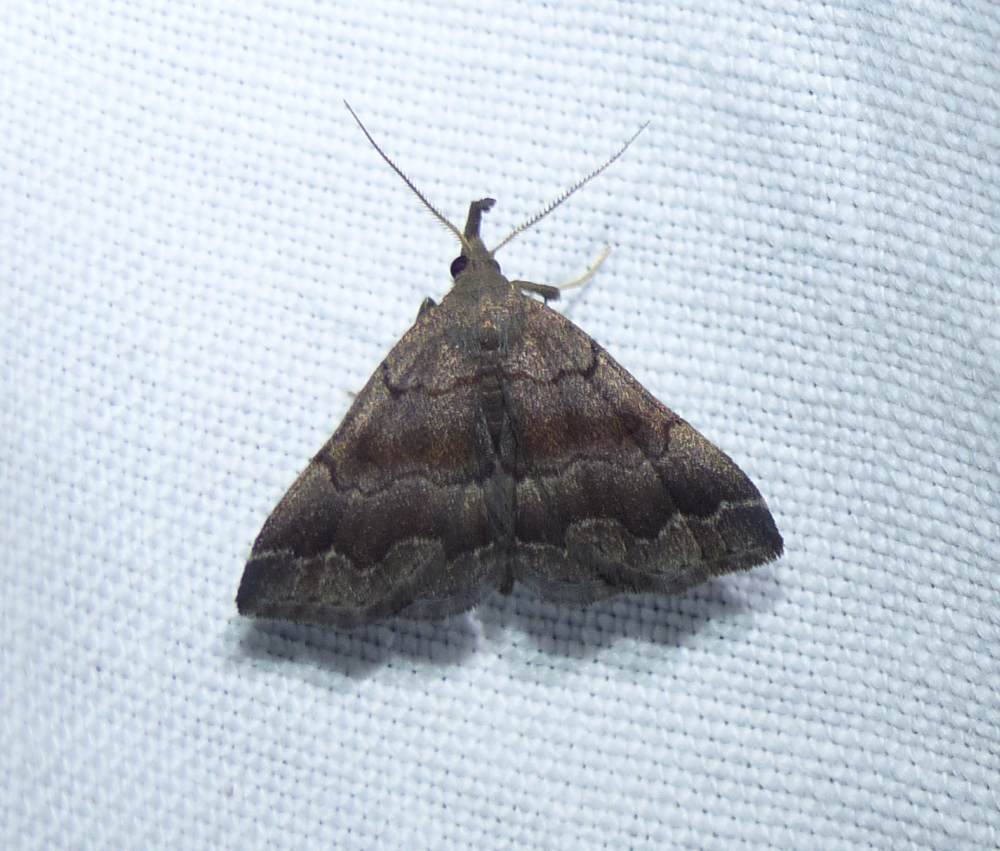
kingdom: Animalia
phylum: Arthropoda
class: Insecta
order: Lepidoptera
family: Erebidae
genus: Phalaenostola
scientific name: Phalaenostola larentioides
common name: Black-banded owlet
